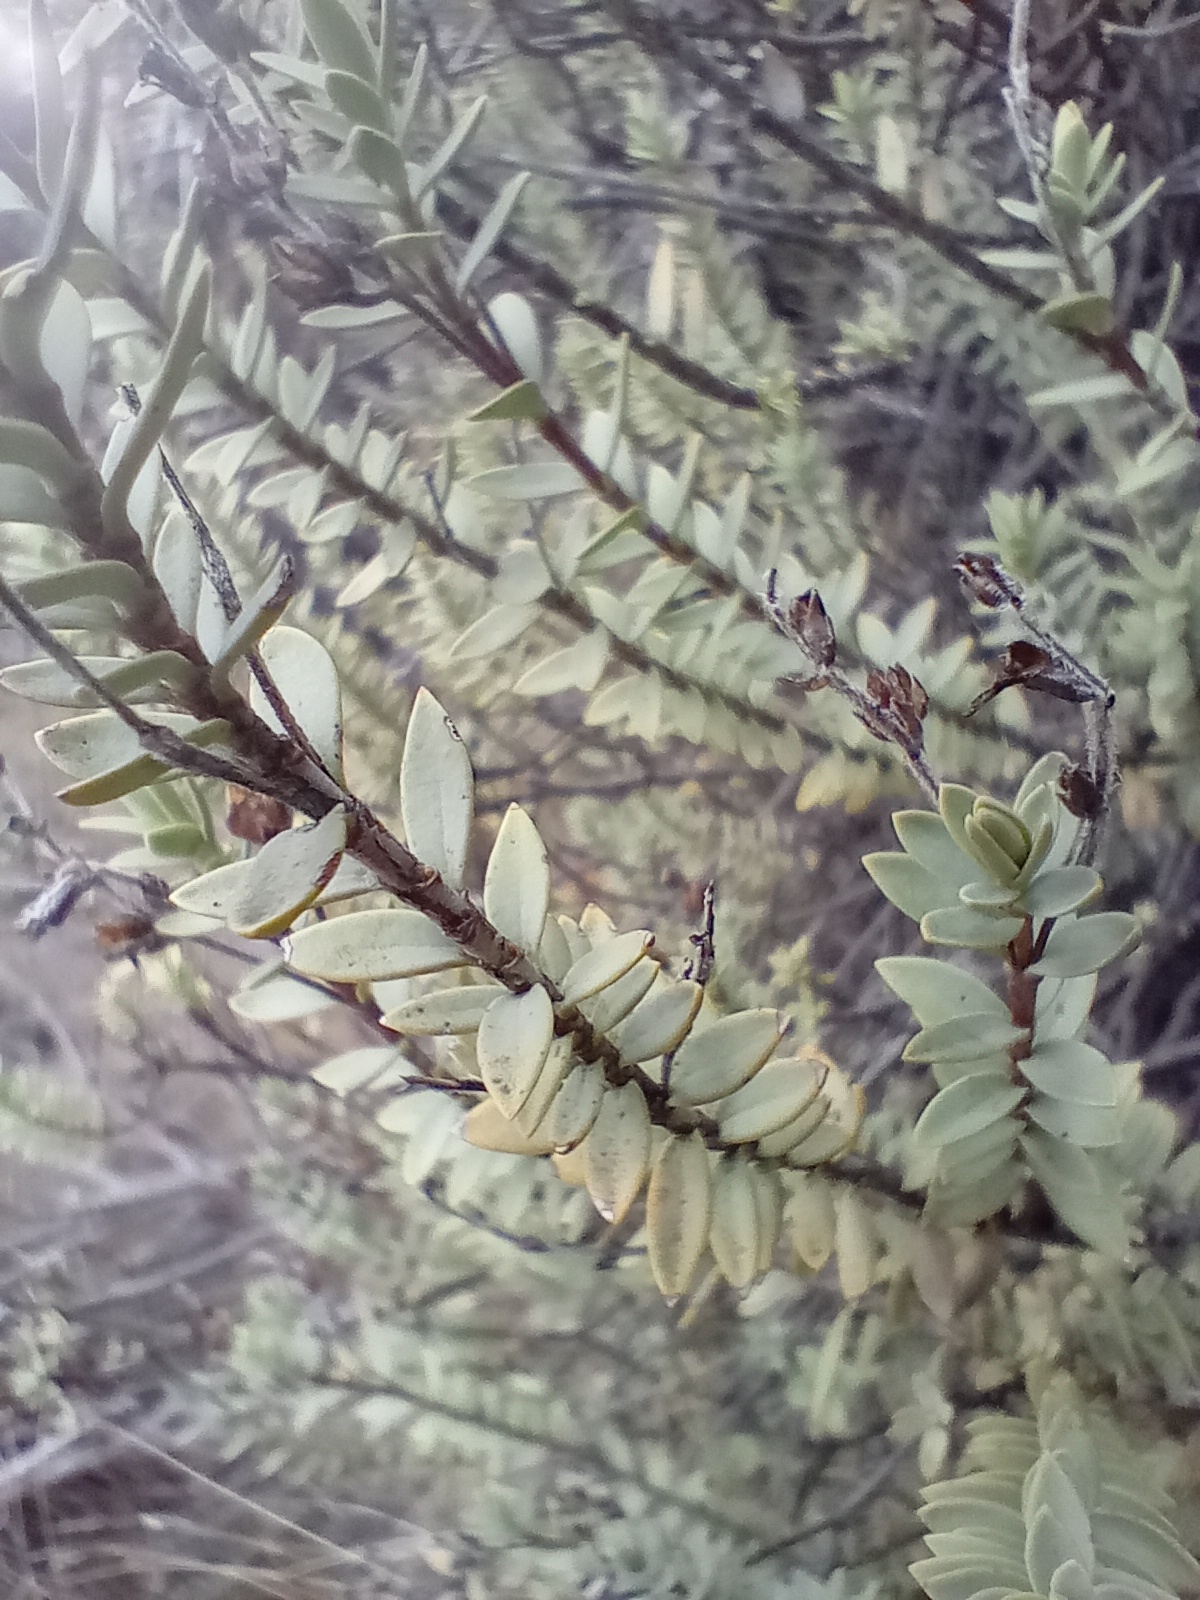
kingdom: Plantae
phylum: Tracheophyta
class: Magnoliopsida
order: Lamiales
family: Plantaginaceae
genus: Veronica
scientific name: Veronica pimeleoides
